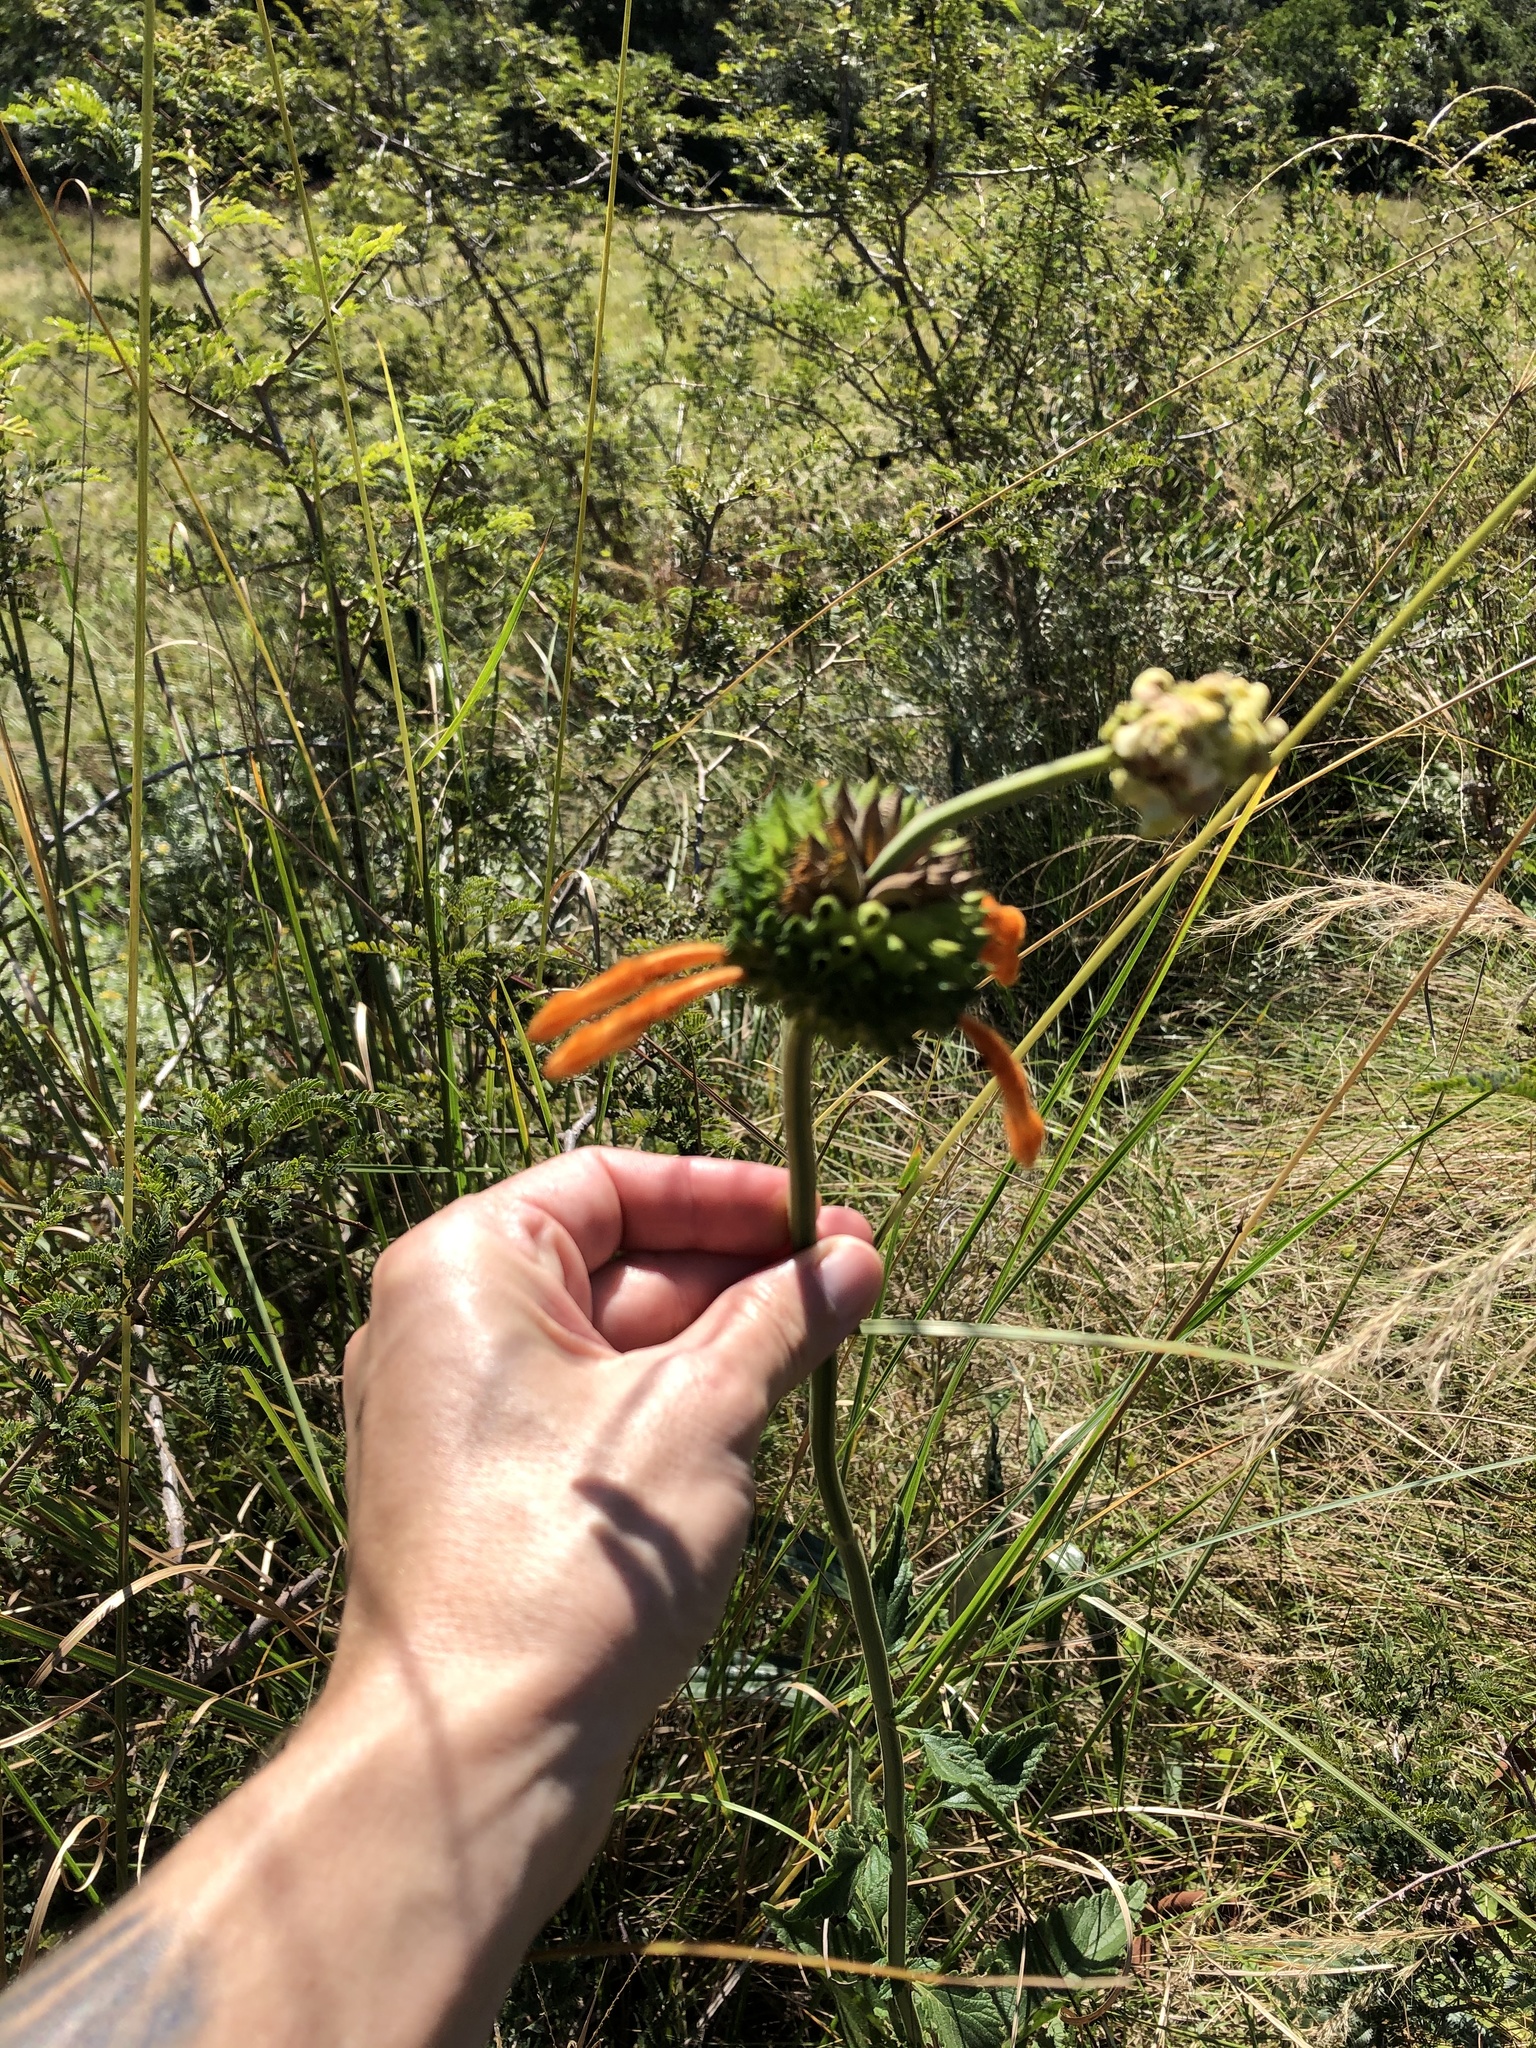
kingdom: Plantae
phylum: Tracheophyta
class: Magnoliopsida
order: Lamiales
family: Lamiaceae
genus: Leonotis
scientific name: Leonotis ocymifolia
